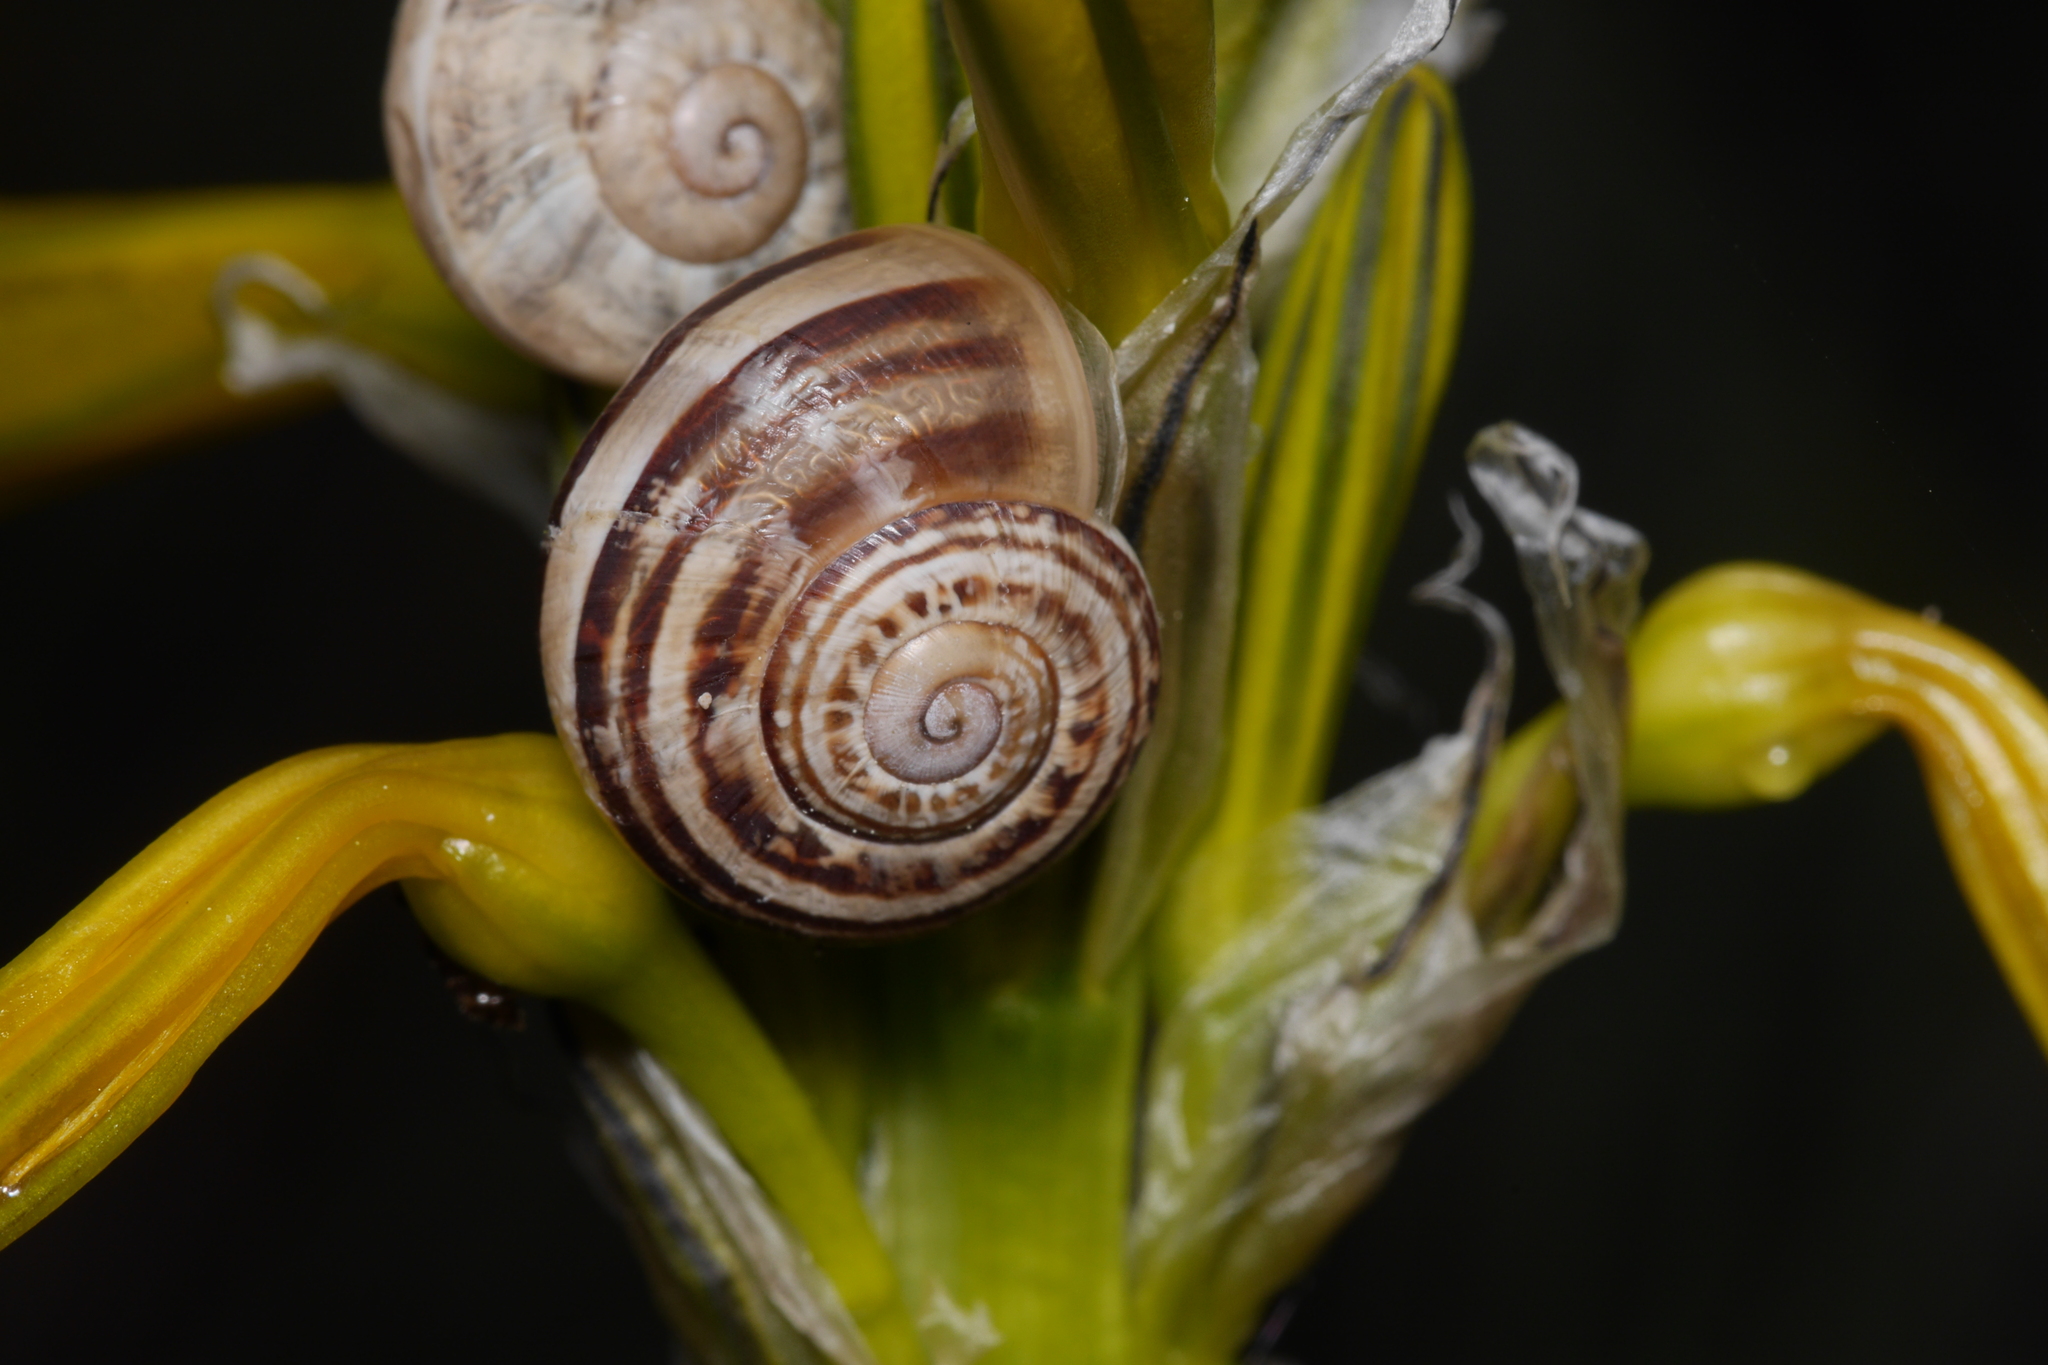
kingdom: Animalia
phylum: Mollusca
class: Gastropoda
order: Stylommatophora
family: Helicidae
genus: Eobania
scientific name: Eobania vermiculata
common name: Chocolateband snail
